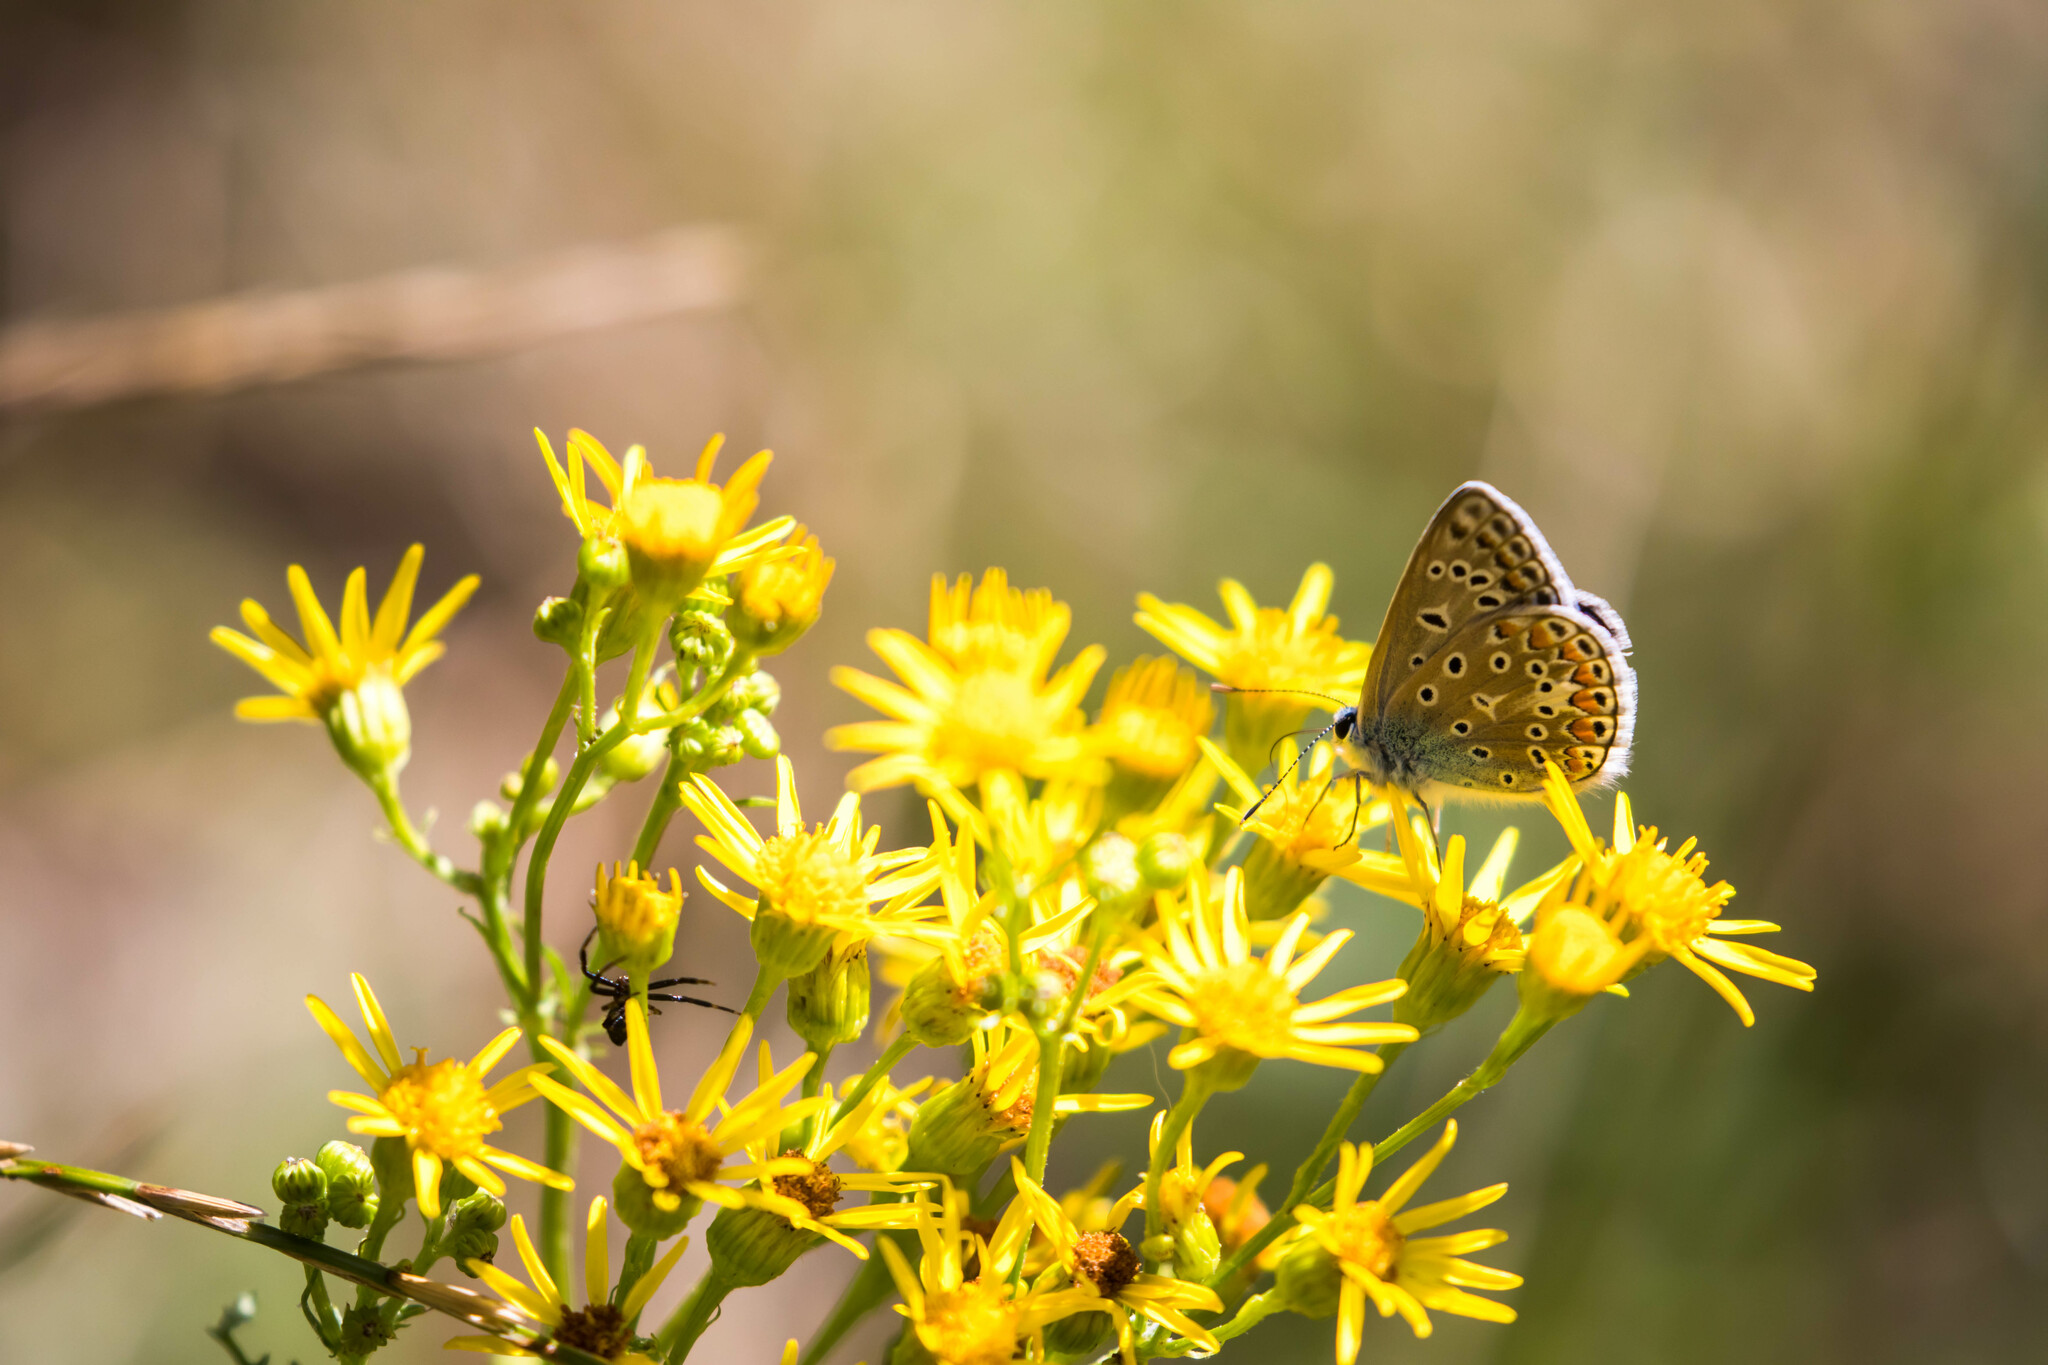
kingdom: Animalia
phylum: Arthropoda
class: Insecta
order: Lepidoptera
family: Lycaenidae
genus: Polyommatus
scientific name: Polyommatus icarus
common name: Common blue
